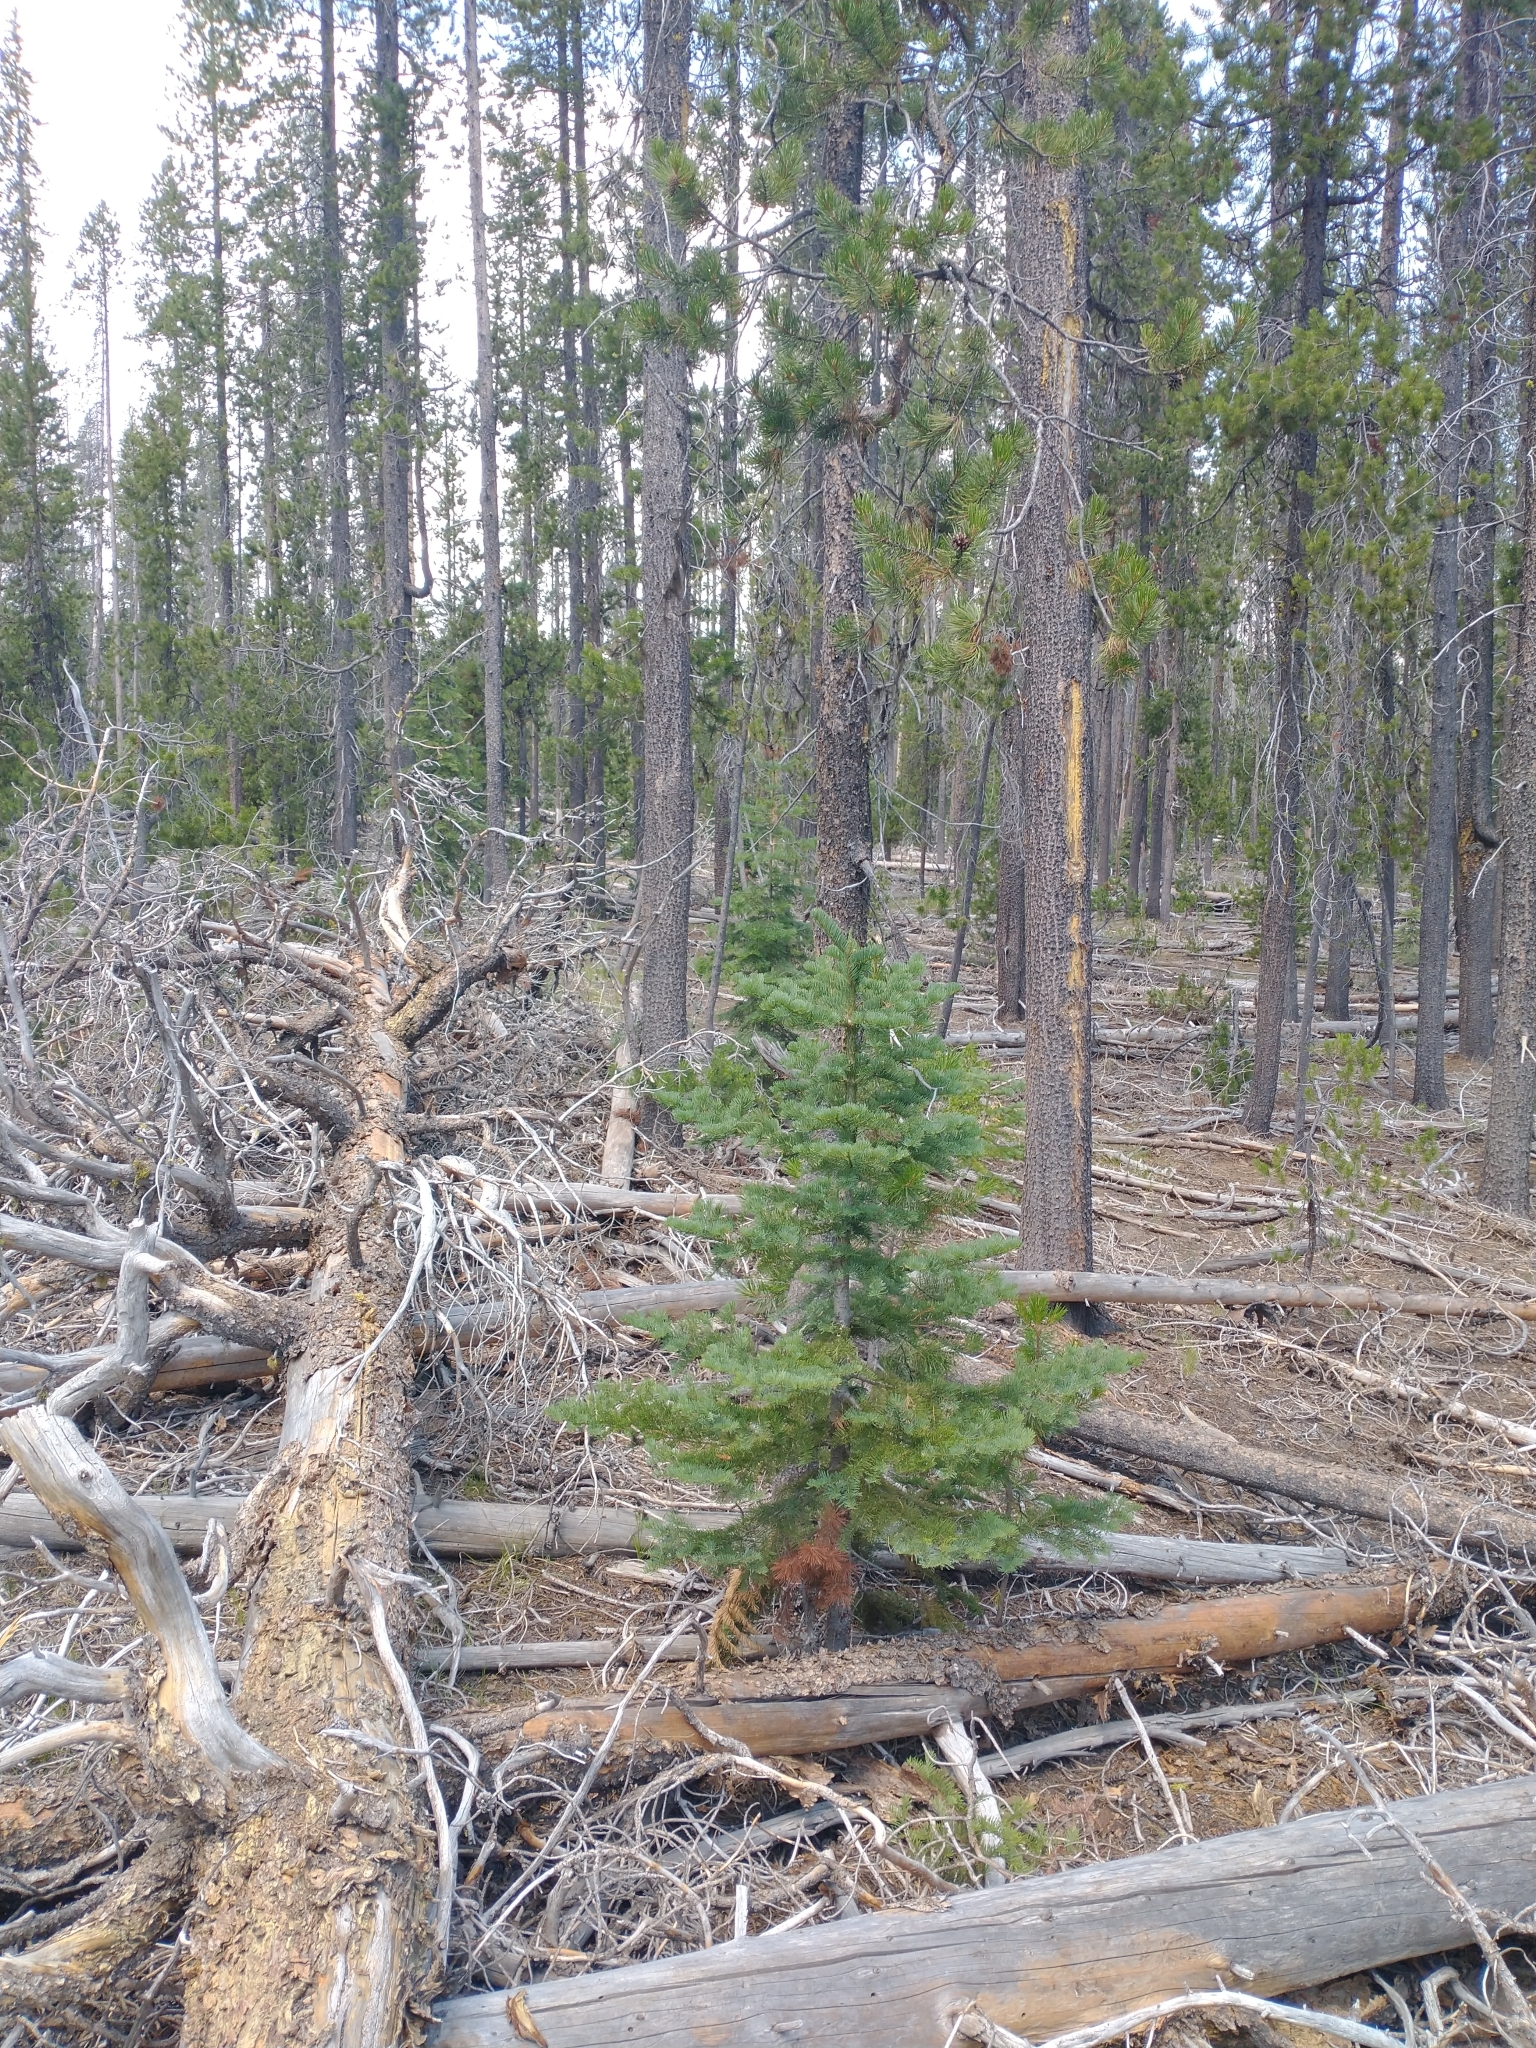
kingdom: Plantae
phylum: Tracheophyta
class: Pinopsida
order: Pinales
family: Pinaceae
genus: Abies
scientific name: Abies magnifica bis
